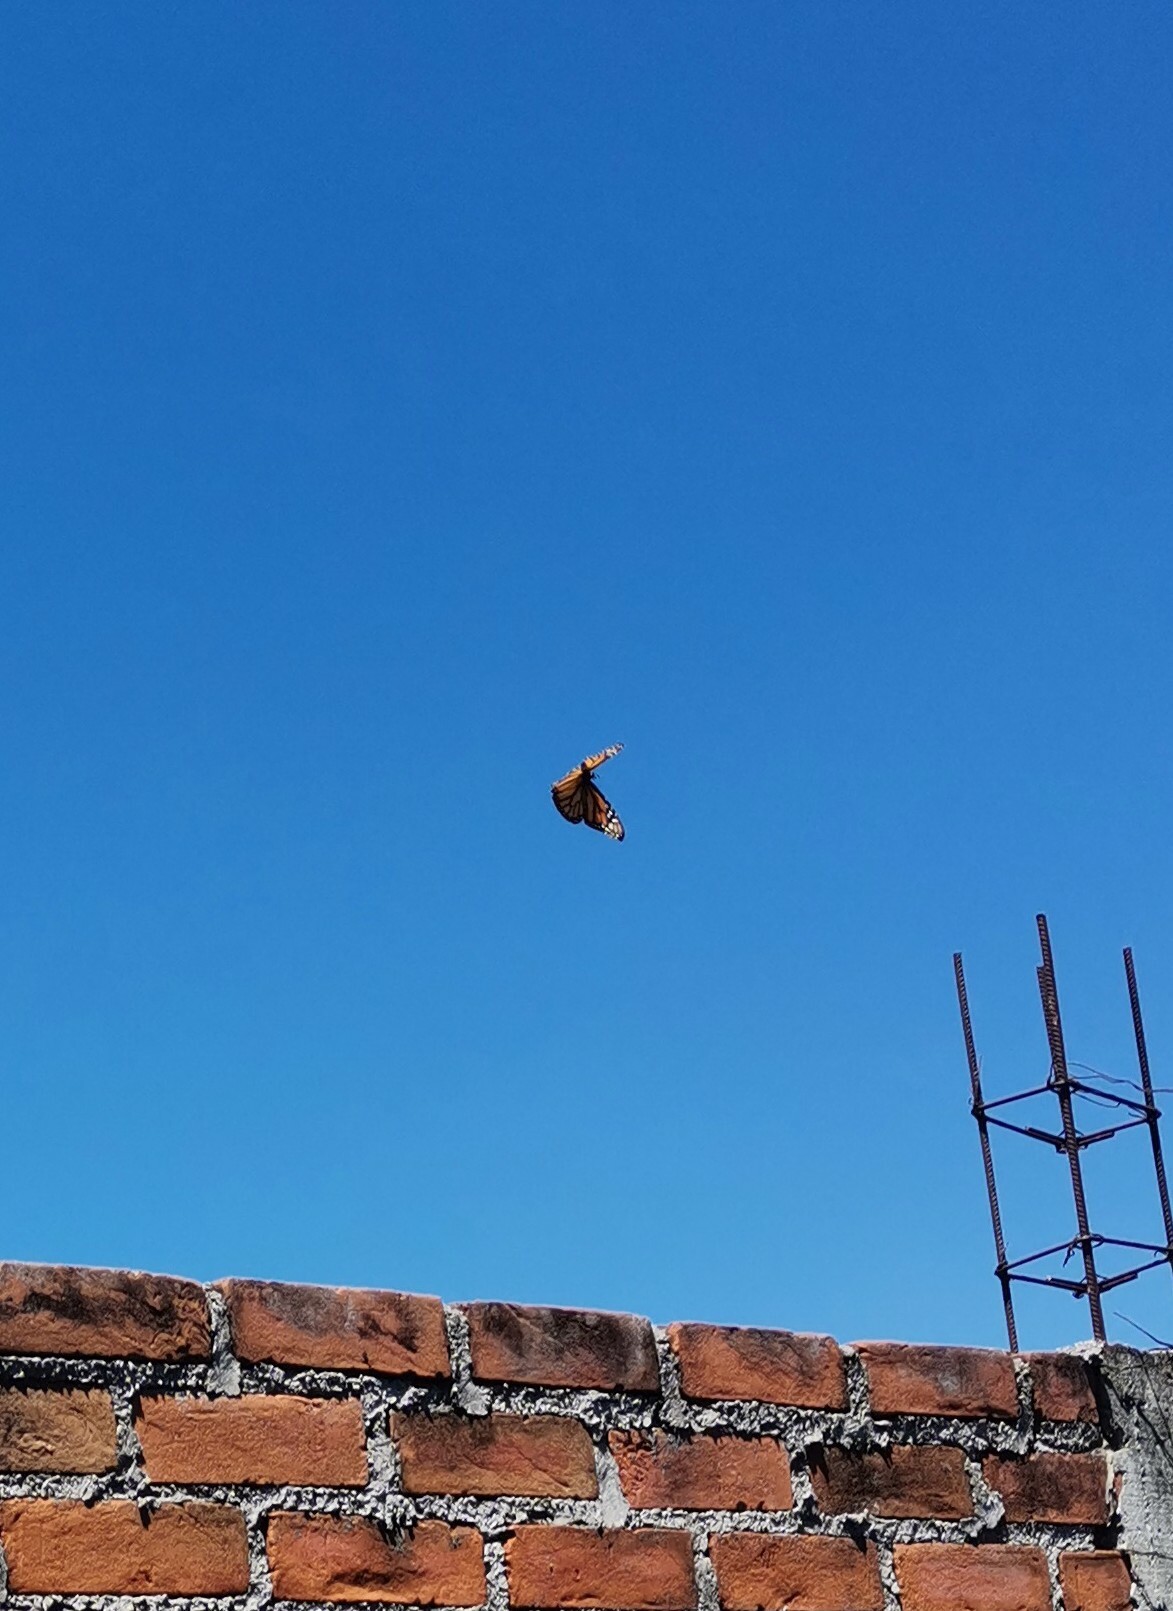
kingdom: Animalia
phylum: Arthropoda
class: Insecta
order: Lepidoptera
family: Nymphalidae
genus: Danaus
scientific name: Danaus plexippus
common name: Monarch
